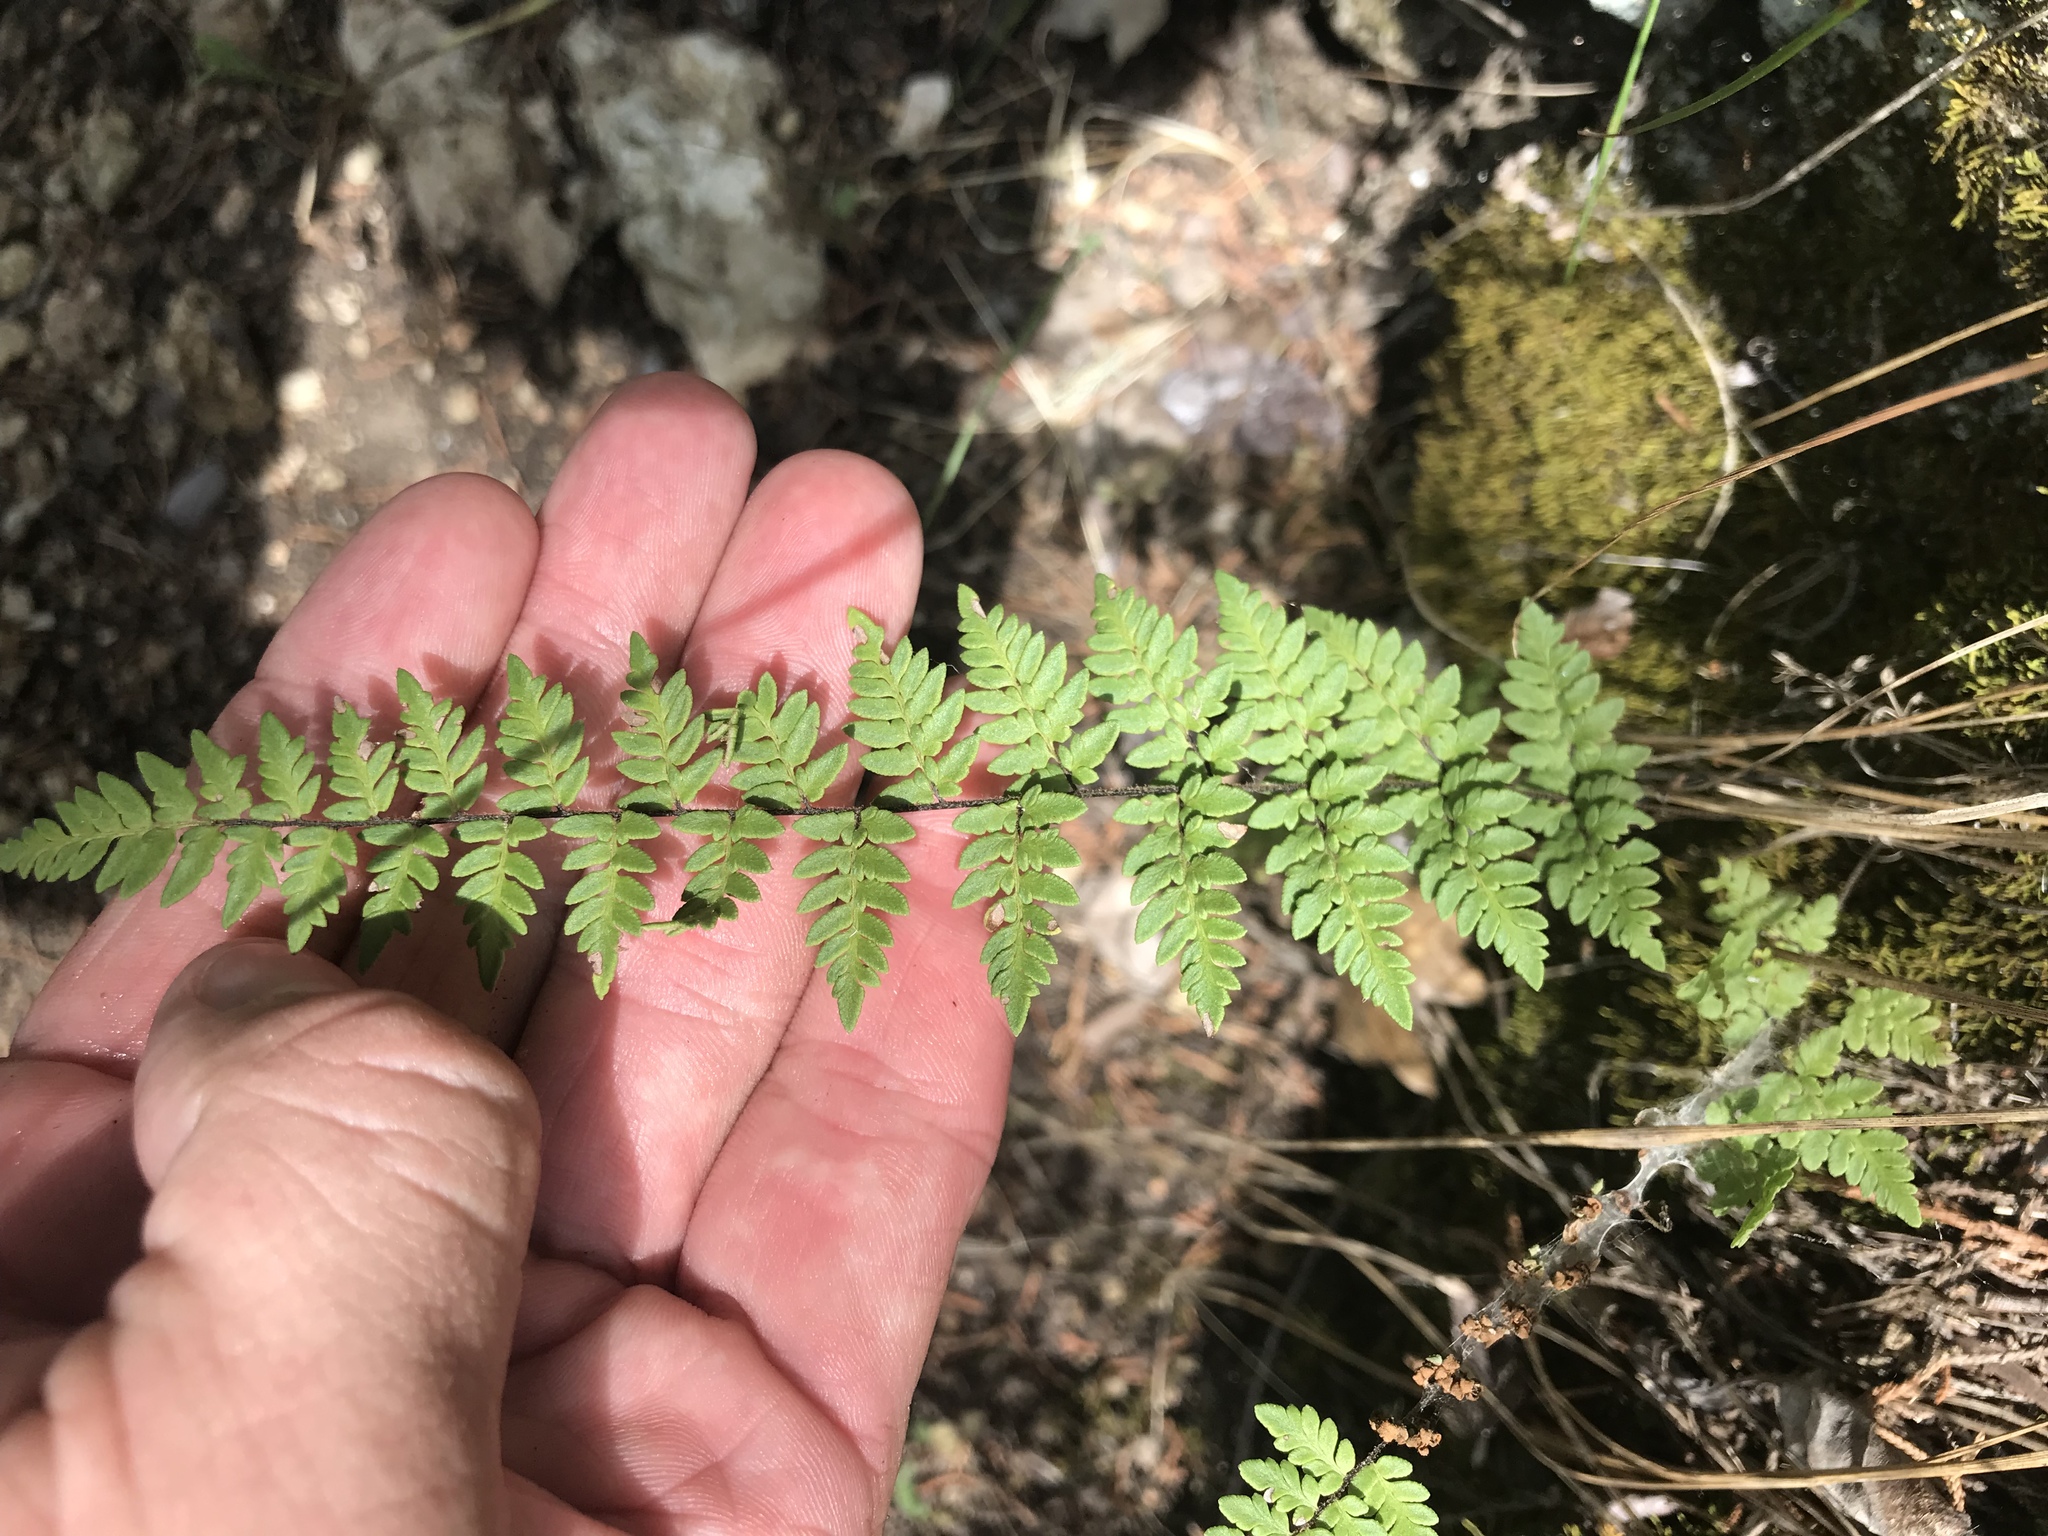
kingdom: Plantae
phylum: Tracheophyta
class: Polypodiopsida
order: Polypodiales
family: Pteridaceae
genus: Myriopteris
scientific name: Myriopteris alabamensis
